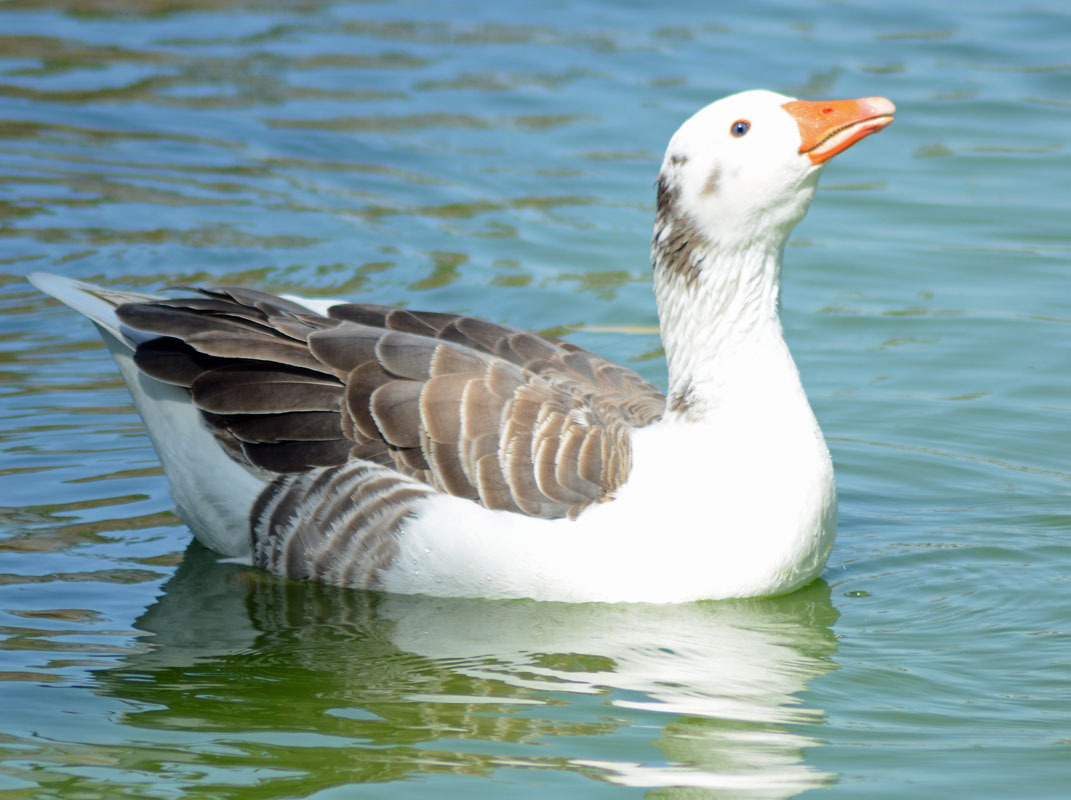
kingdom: Animalia
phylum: Chordata
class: Aves
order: Anseriformes
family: Anatidae
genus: Anser
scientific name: Anser anser
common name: Greylag goose
